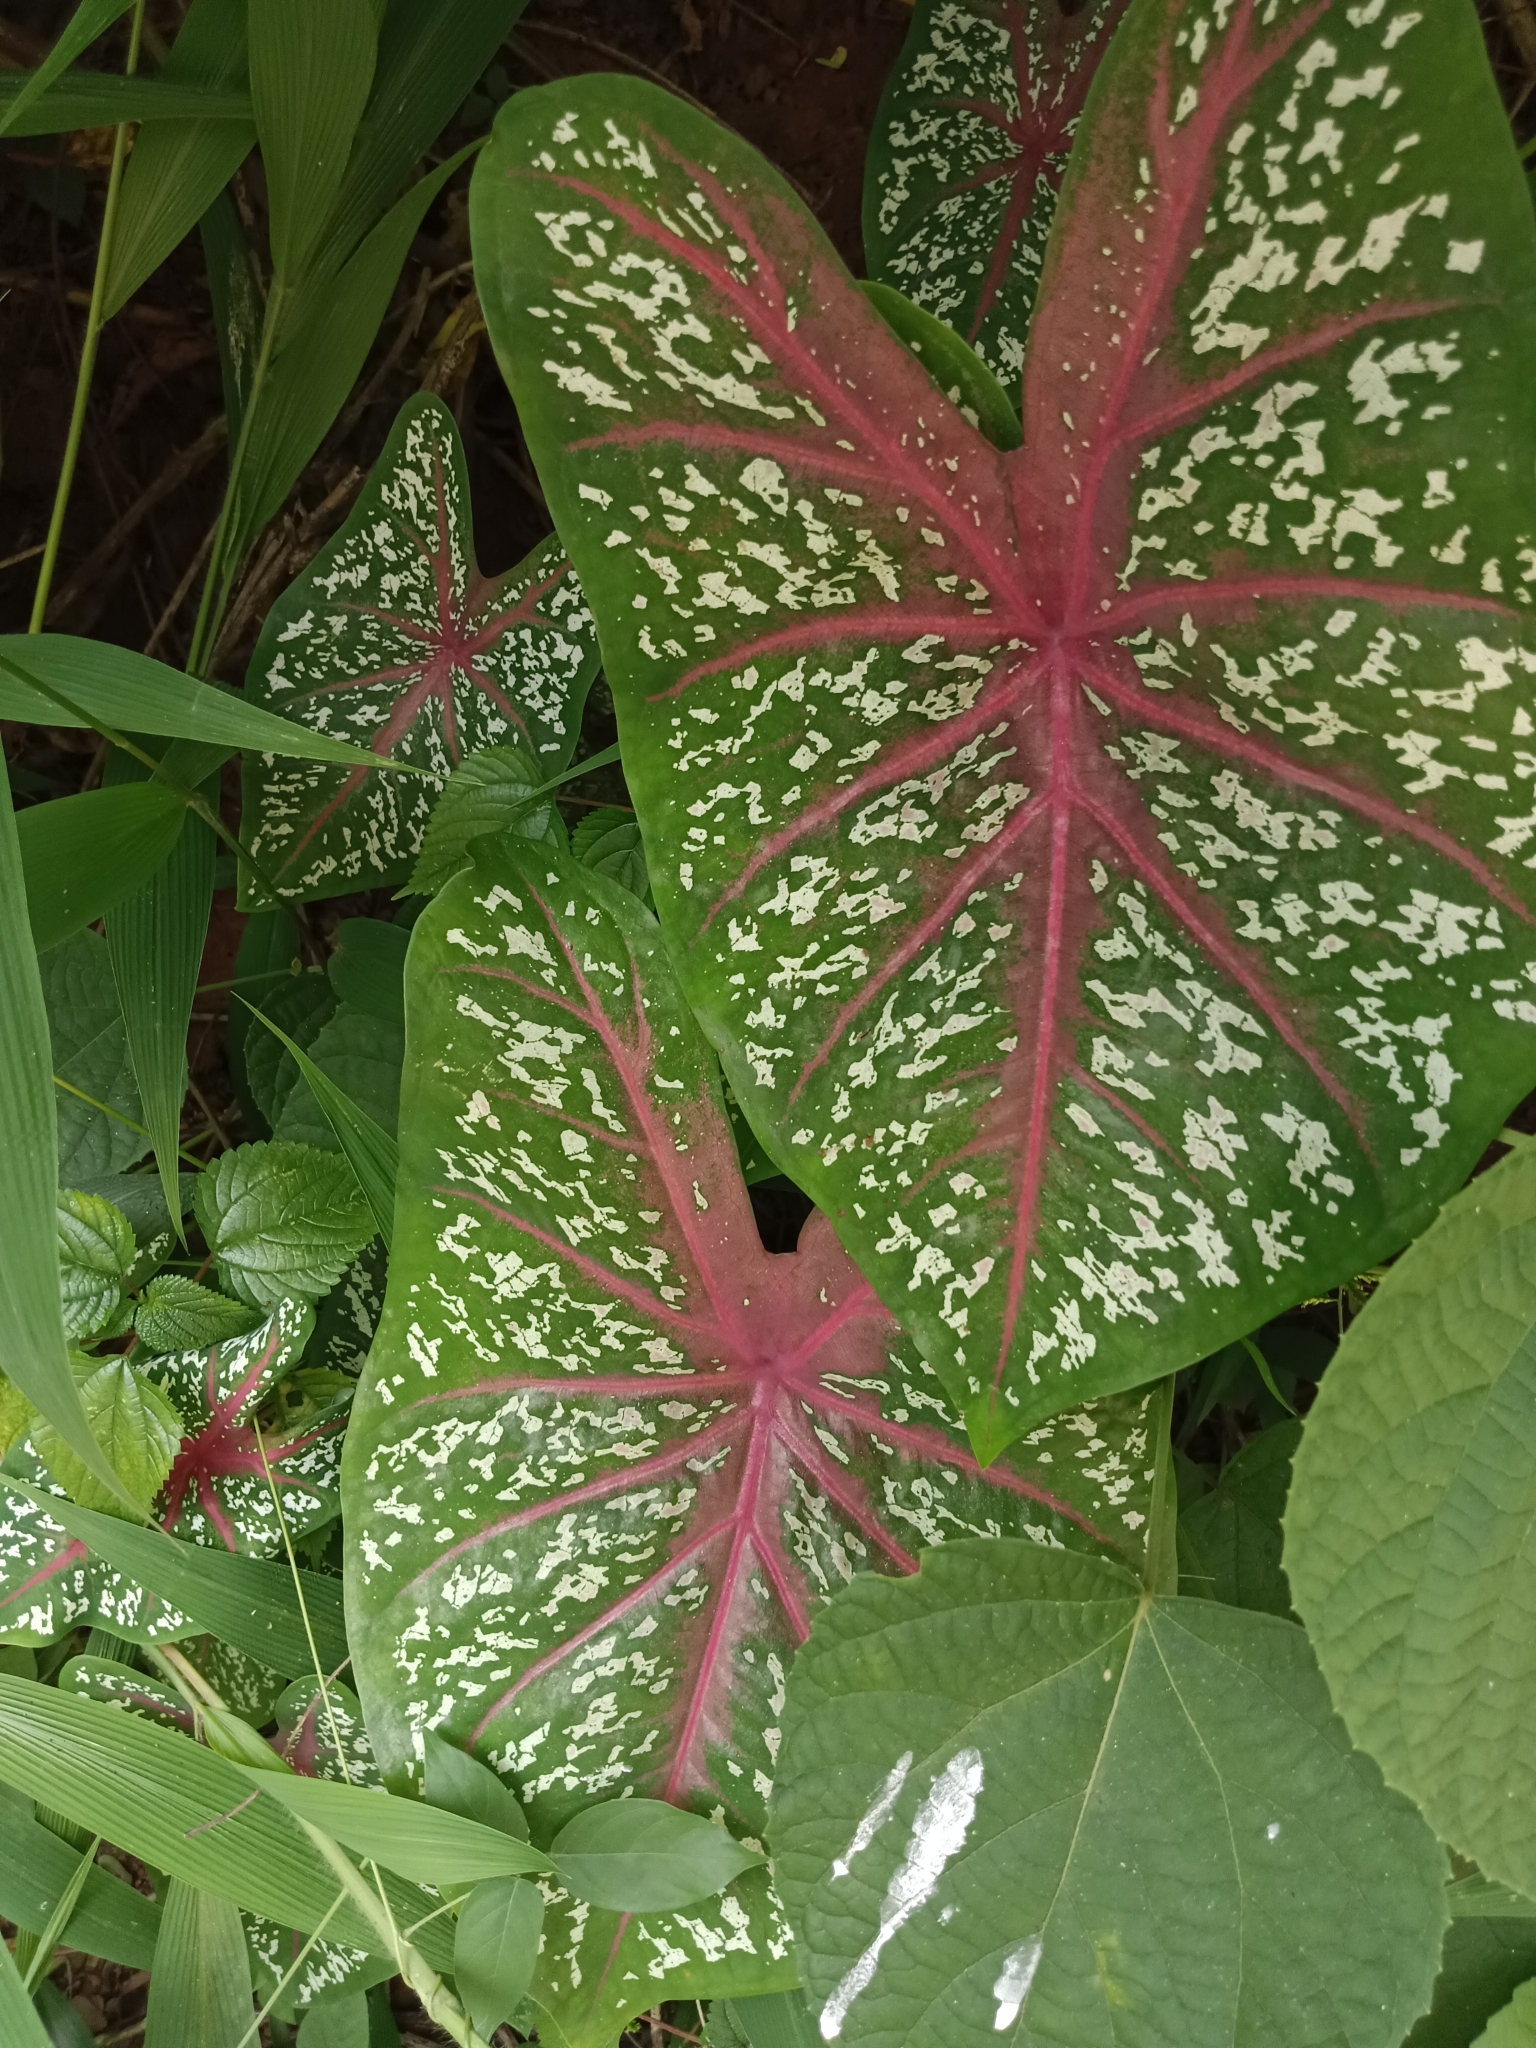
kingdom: Plantae
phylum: Tracheophyta
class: Liliopsida
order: Alismatales
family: Araceae
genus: Caladium
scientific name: Caladium bicolor
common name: Artist's pallet
